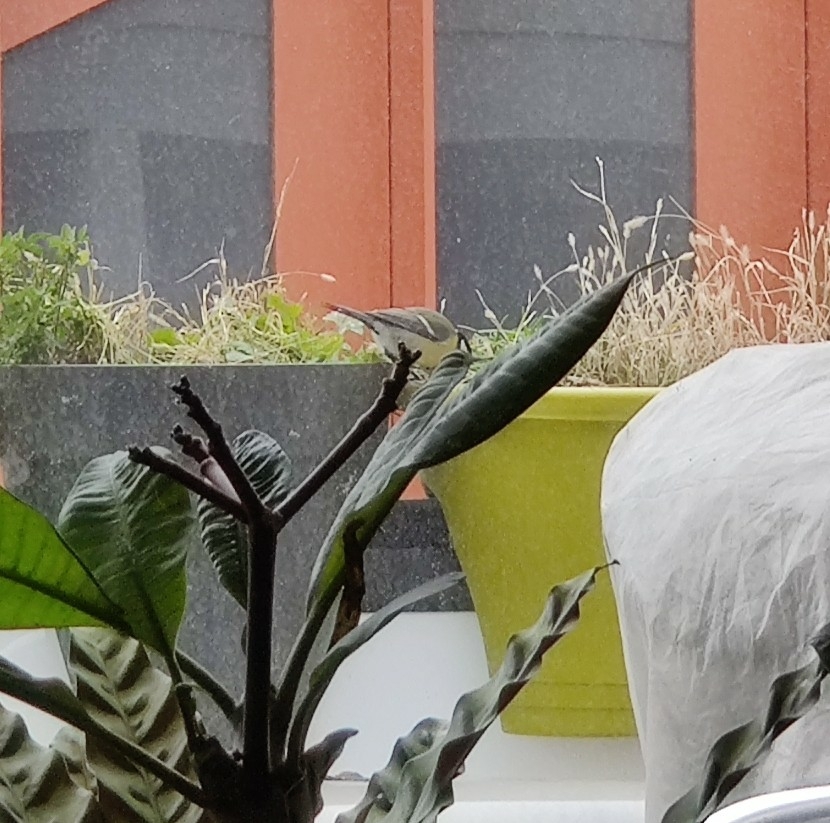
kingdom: Animalia
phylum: Chordata
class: Aves
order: Passeriformes
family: Paridae
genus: Parus
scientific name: Parus major
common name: Great tit
